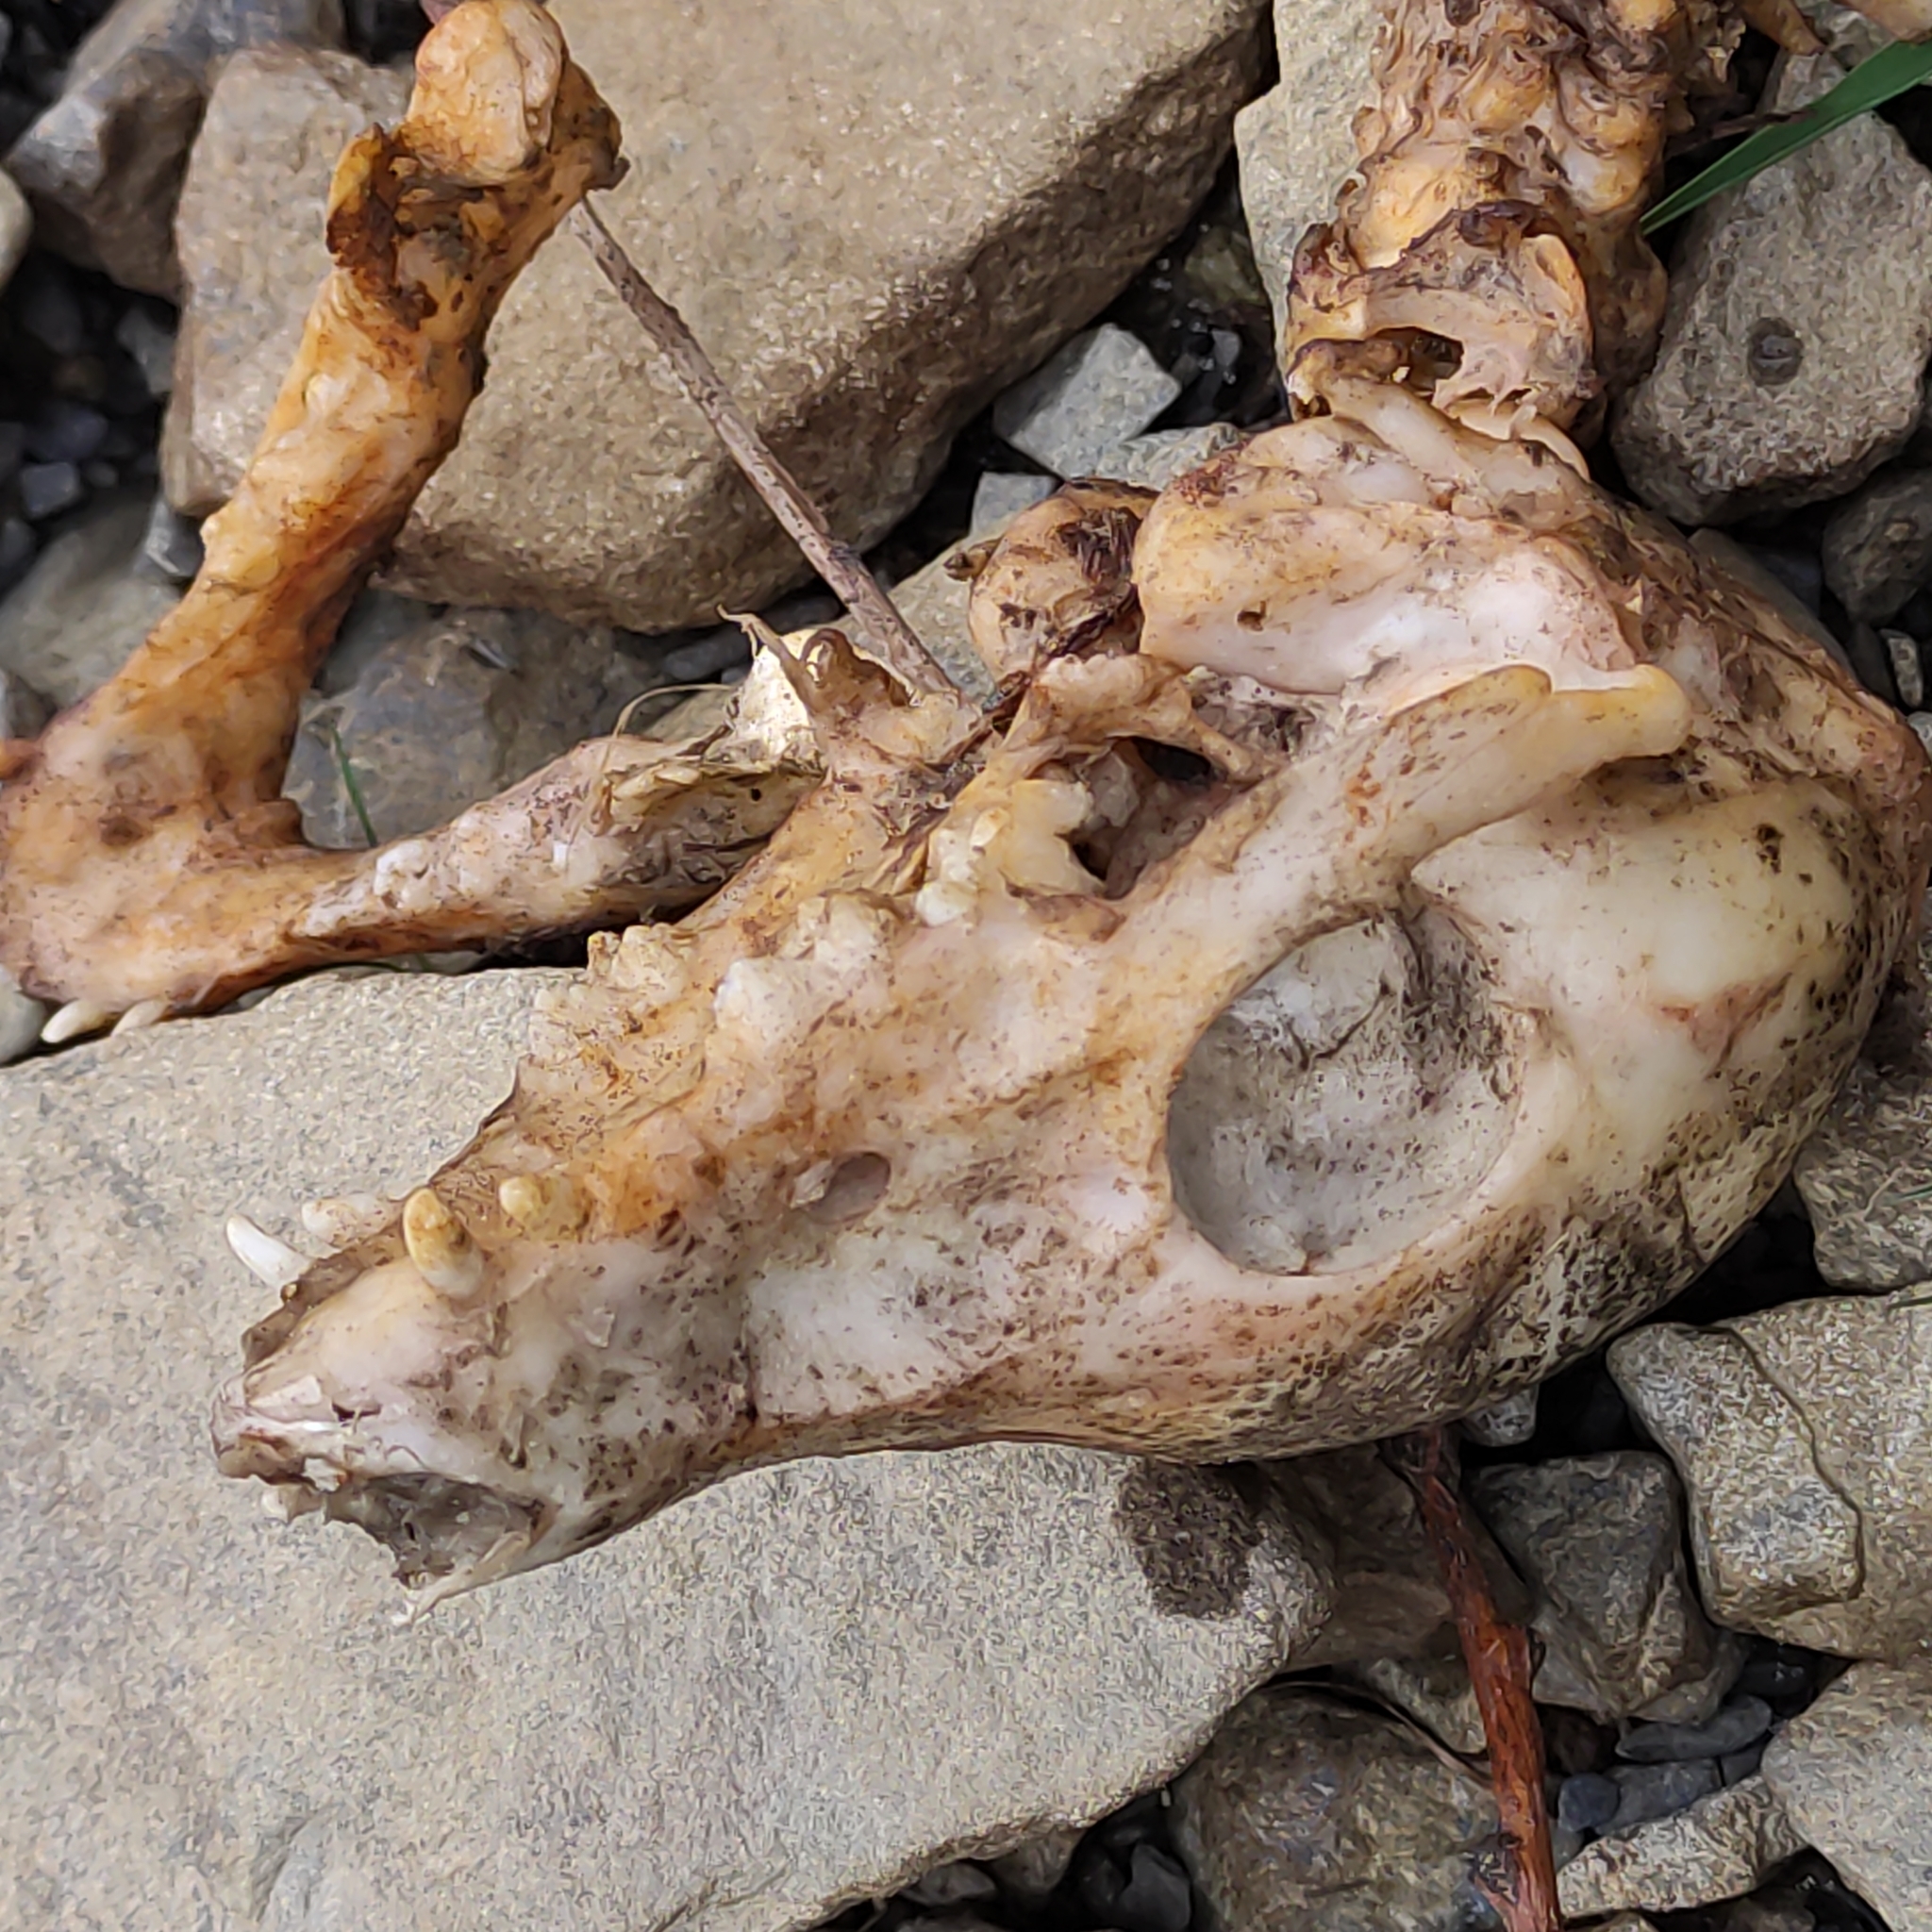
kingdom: Animalia
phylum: Chordata
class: Mammalia
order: Artiodactyla
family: Suidae
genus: Sus
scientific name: Sus scrofa
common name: Wild boar
